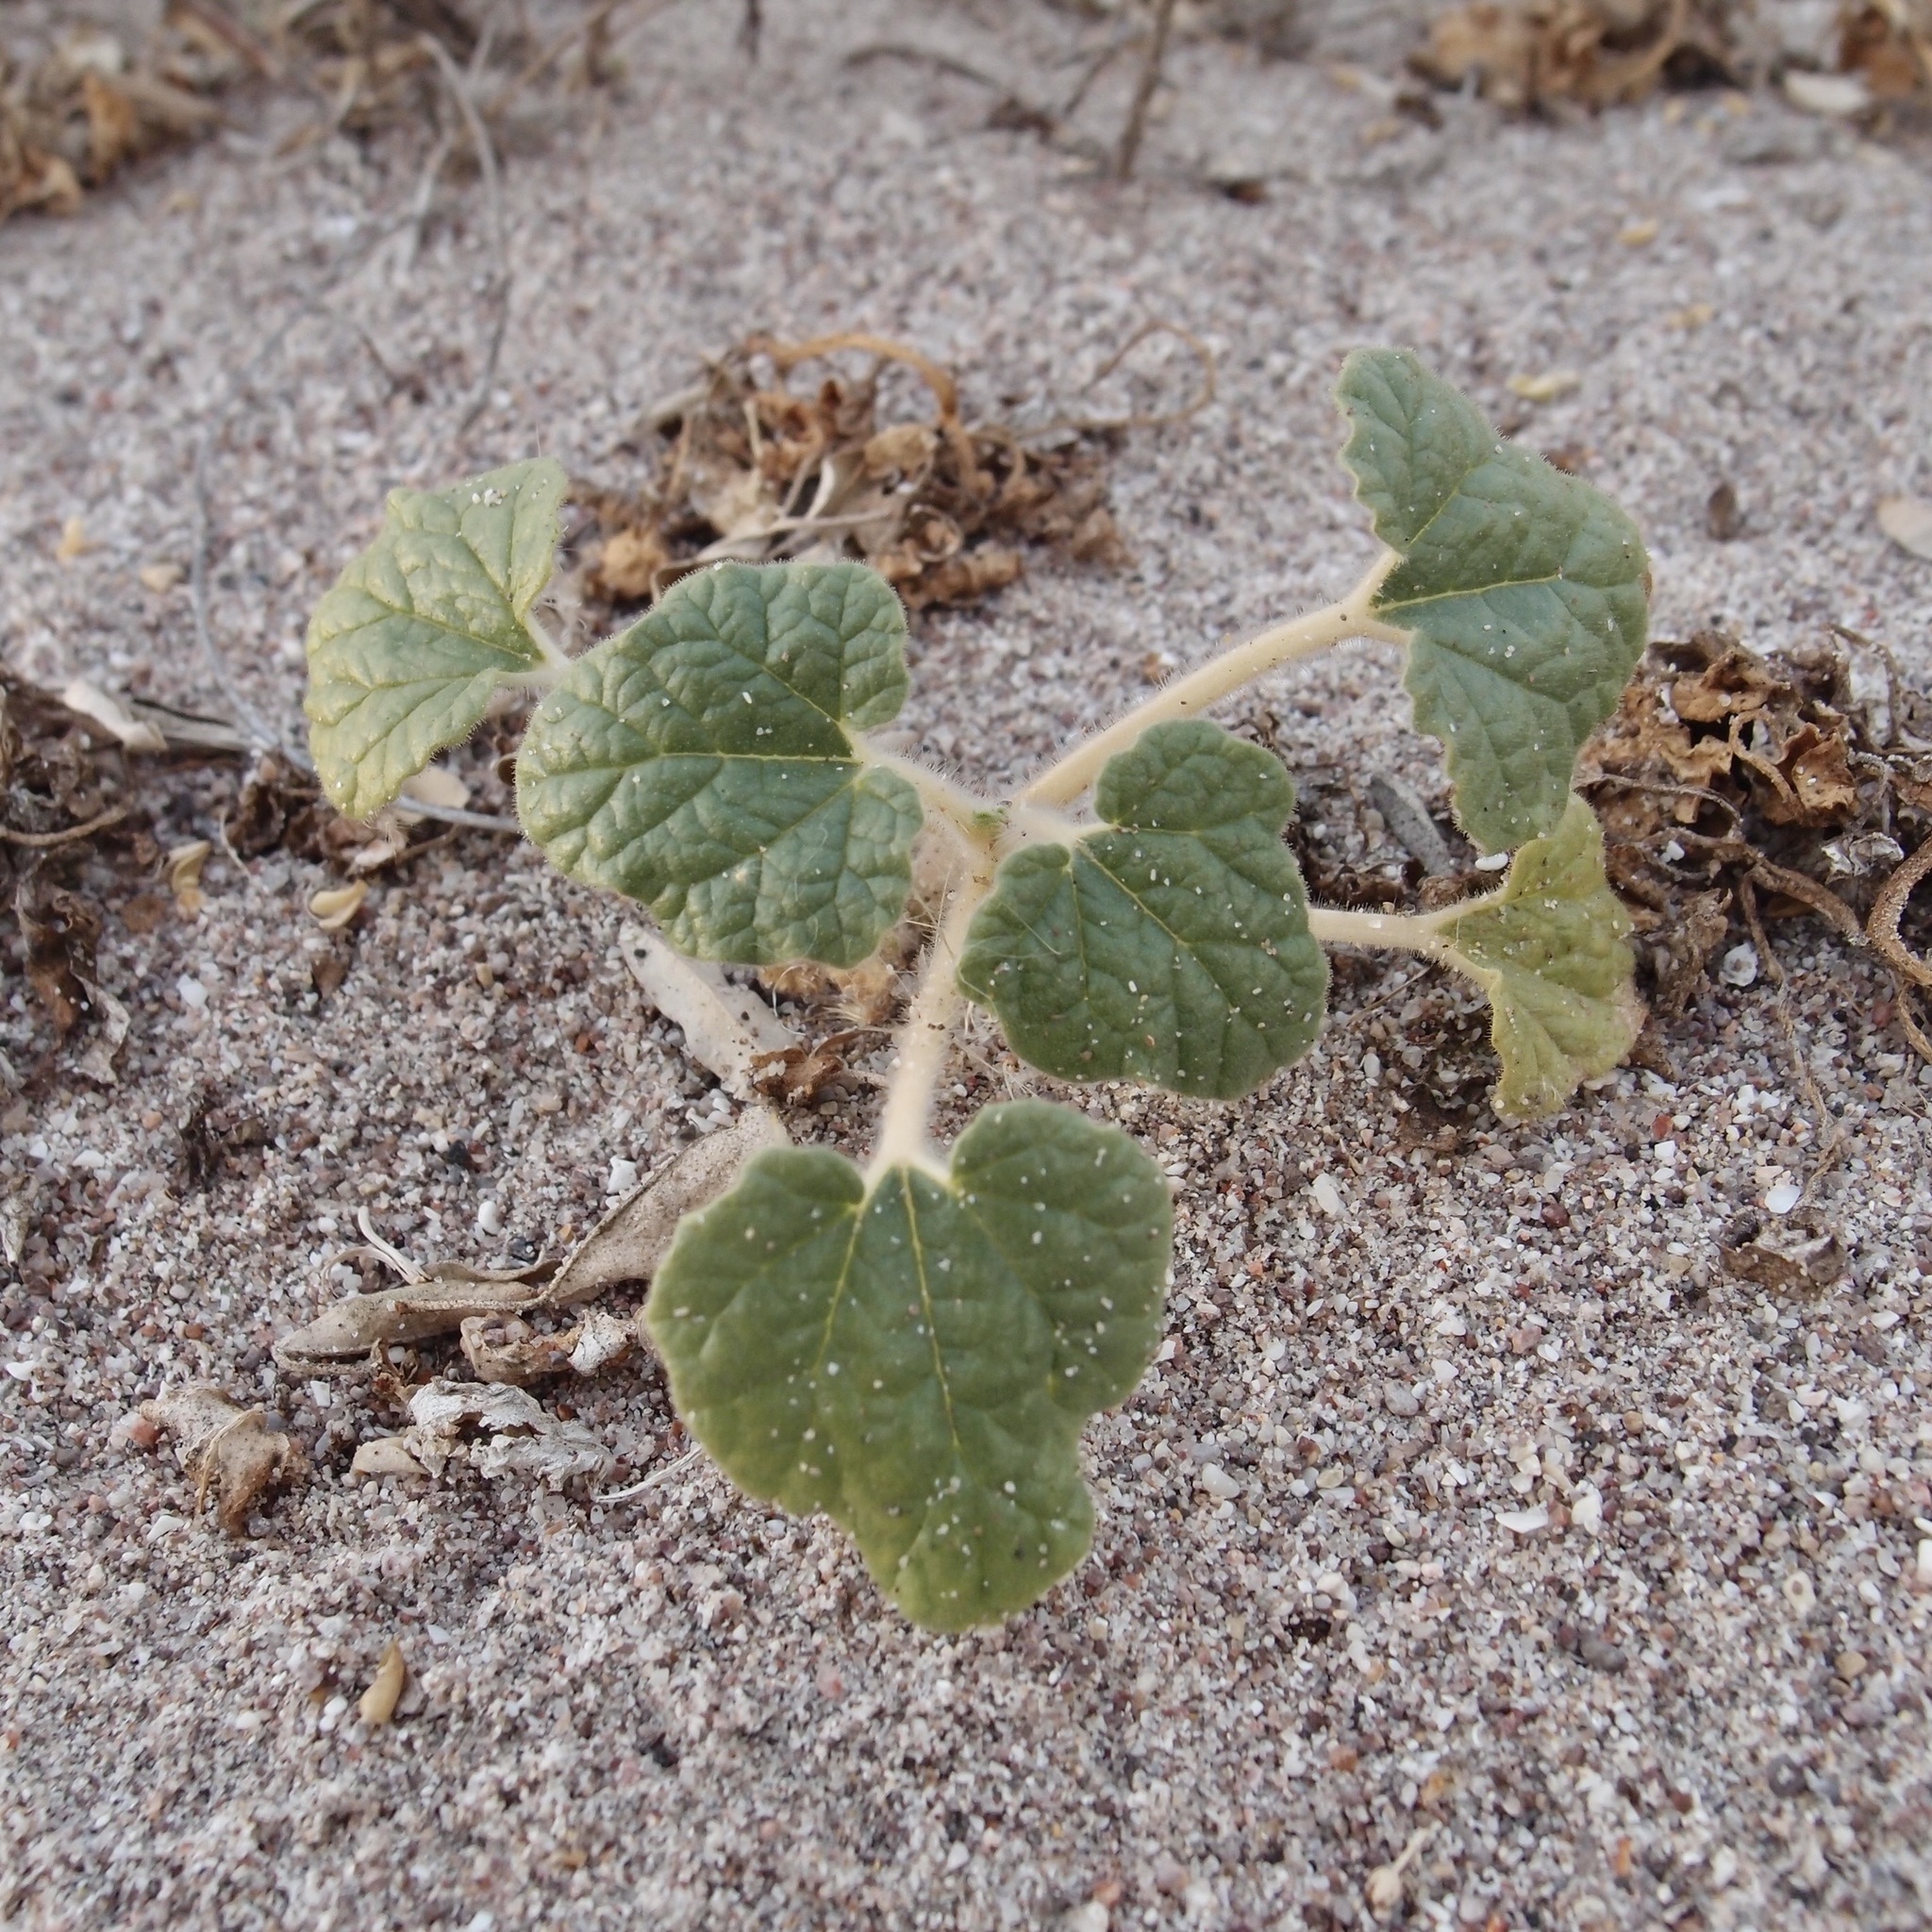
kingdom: Plantae
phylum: Tracheophyta
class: Magnoliopsida
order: Lamiales
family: Martyniaceae
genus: Proboscidea
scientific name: Proboscidea althaeifolia
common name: Desert unicorn-plant
